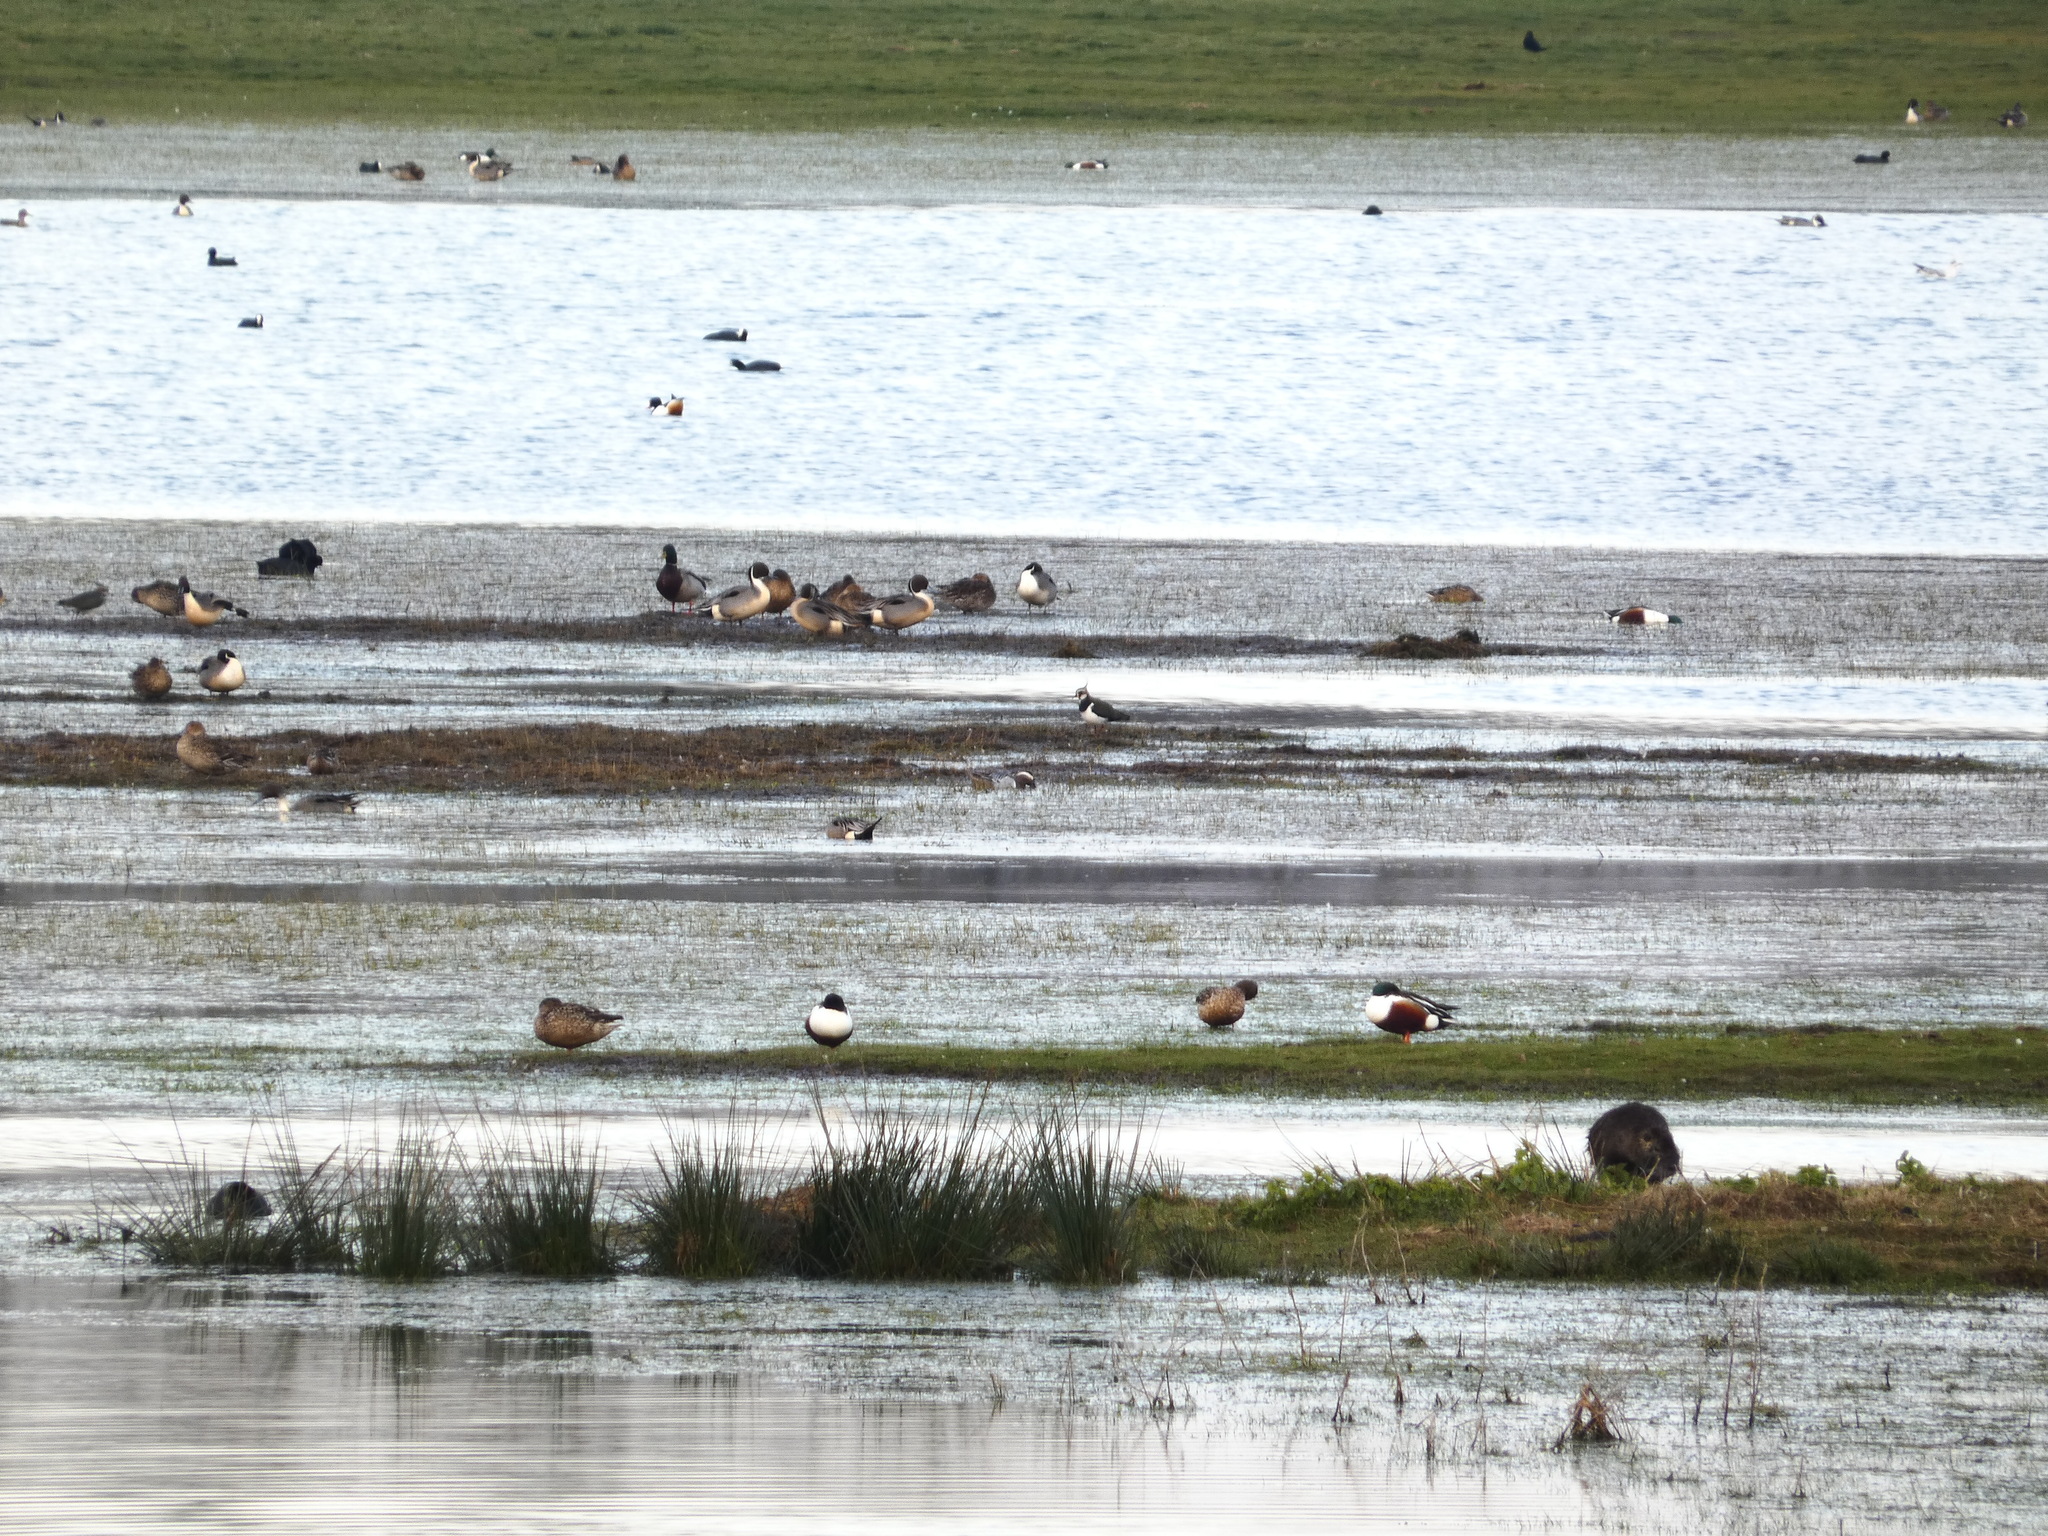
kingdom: Animalia
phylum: Chordata
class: Mammalia
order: Rodentia
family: Myocastoridae
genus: Myocastor
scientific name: Myocastor coypus
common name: Coypu
